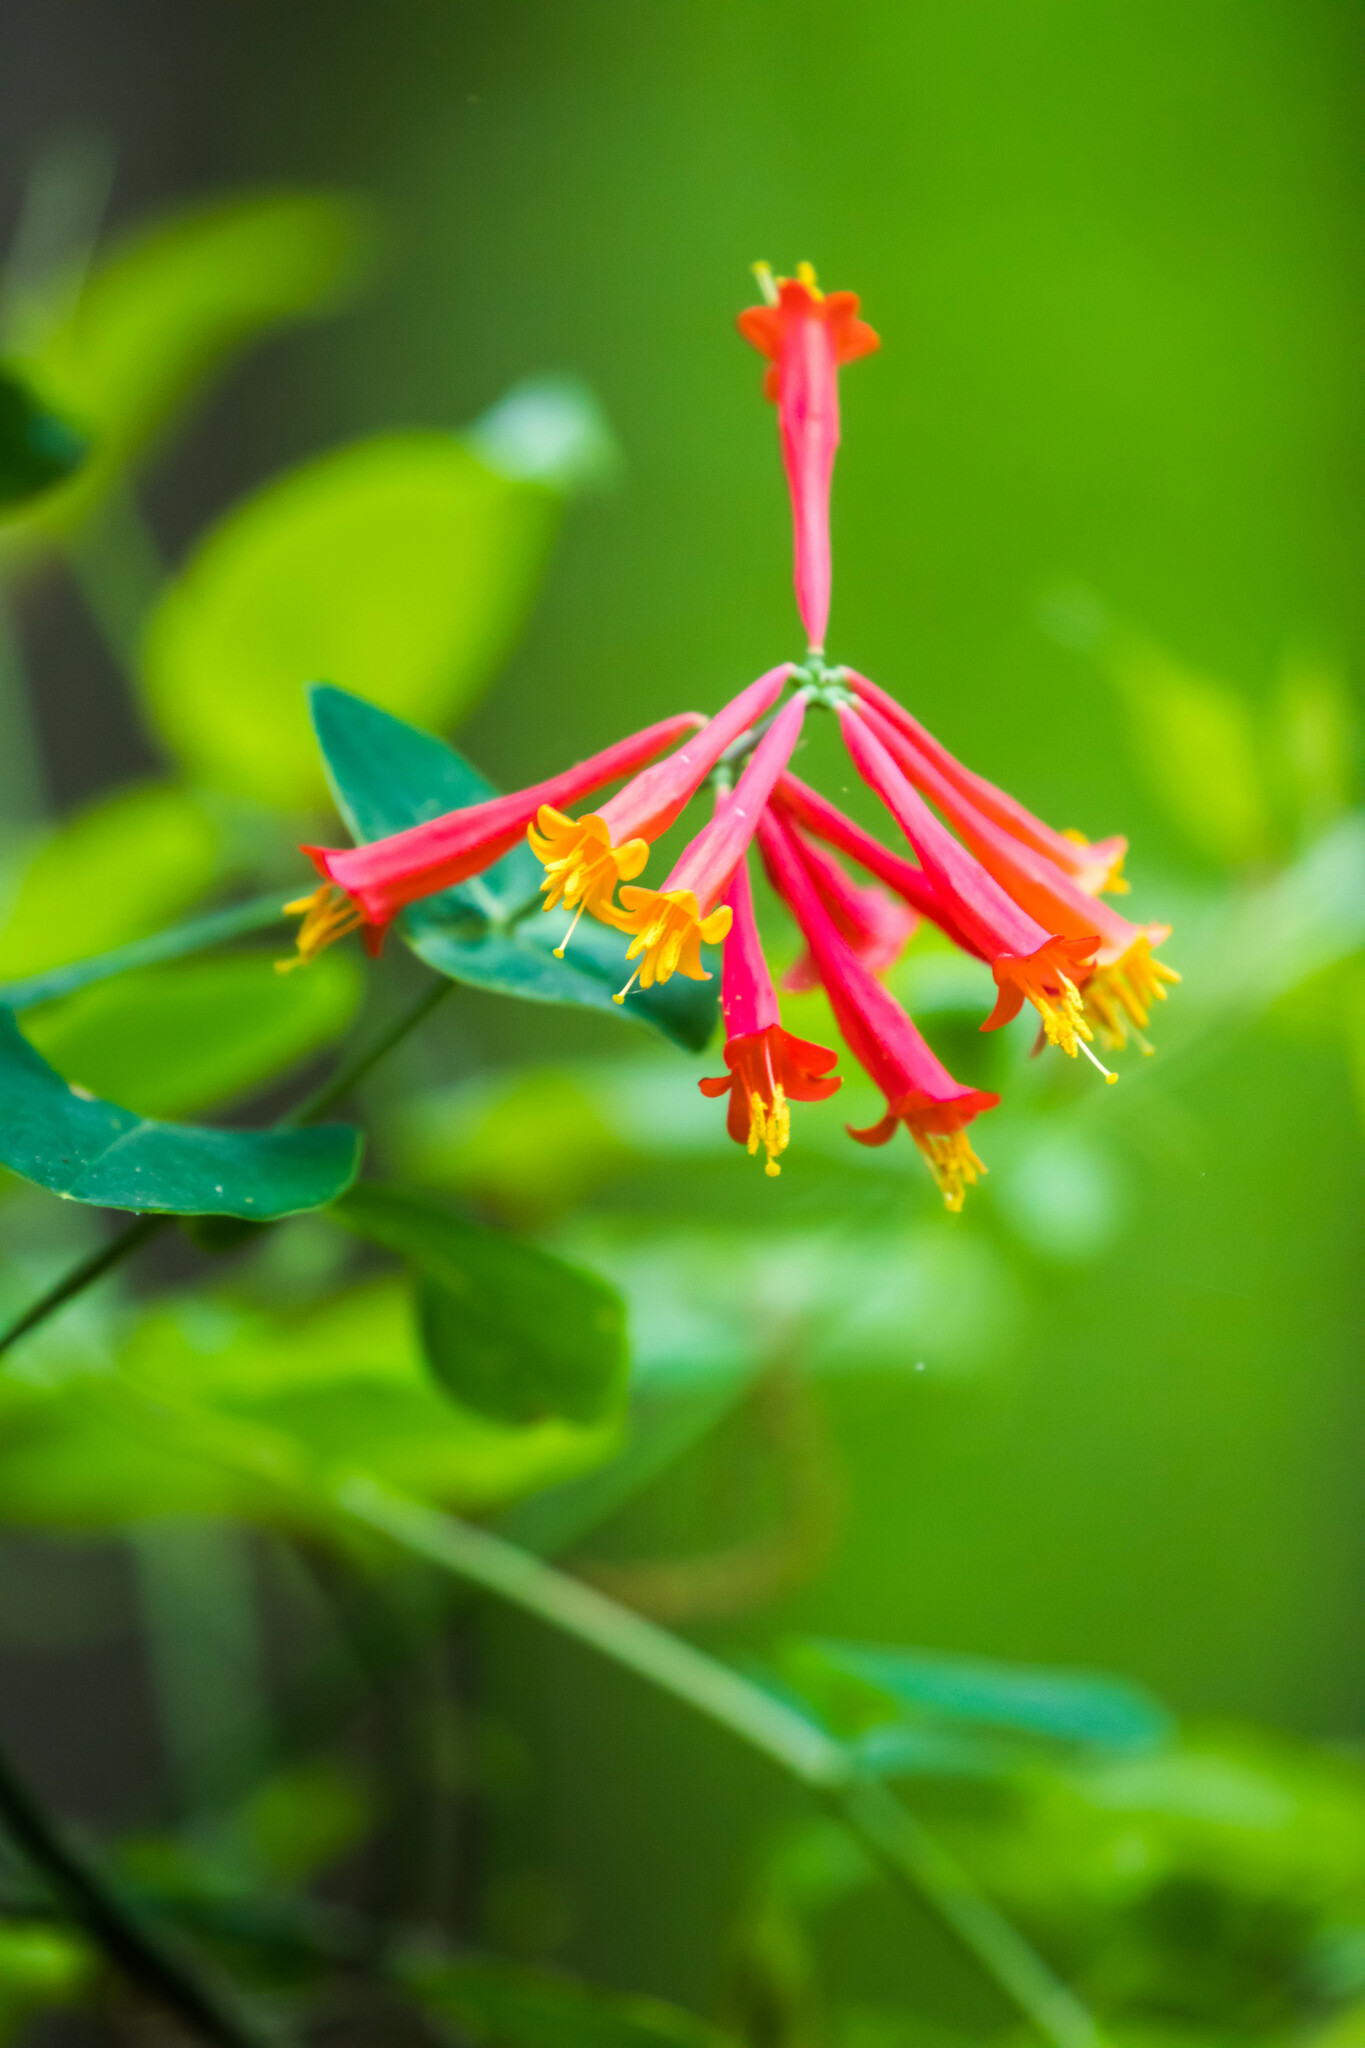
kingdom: Plantae
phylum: Tracheophyta
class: Magnoliopsida
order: Dipsacales
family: Caprifoliaceae
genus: Lonicera
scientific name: Lonicera sempervirens
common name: Coral honeysuckle
